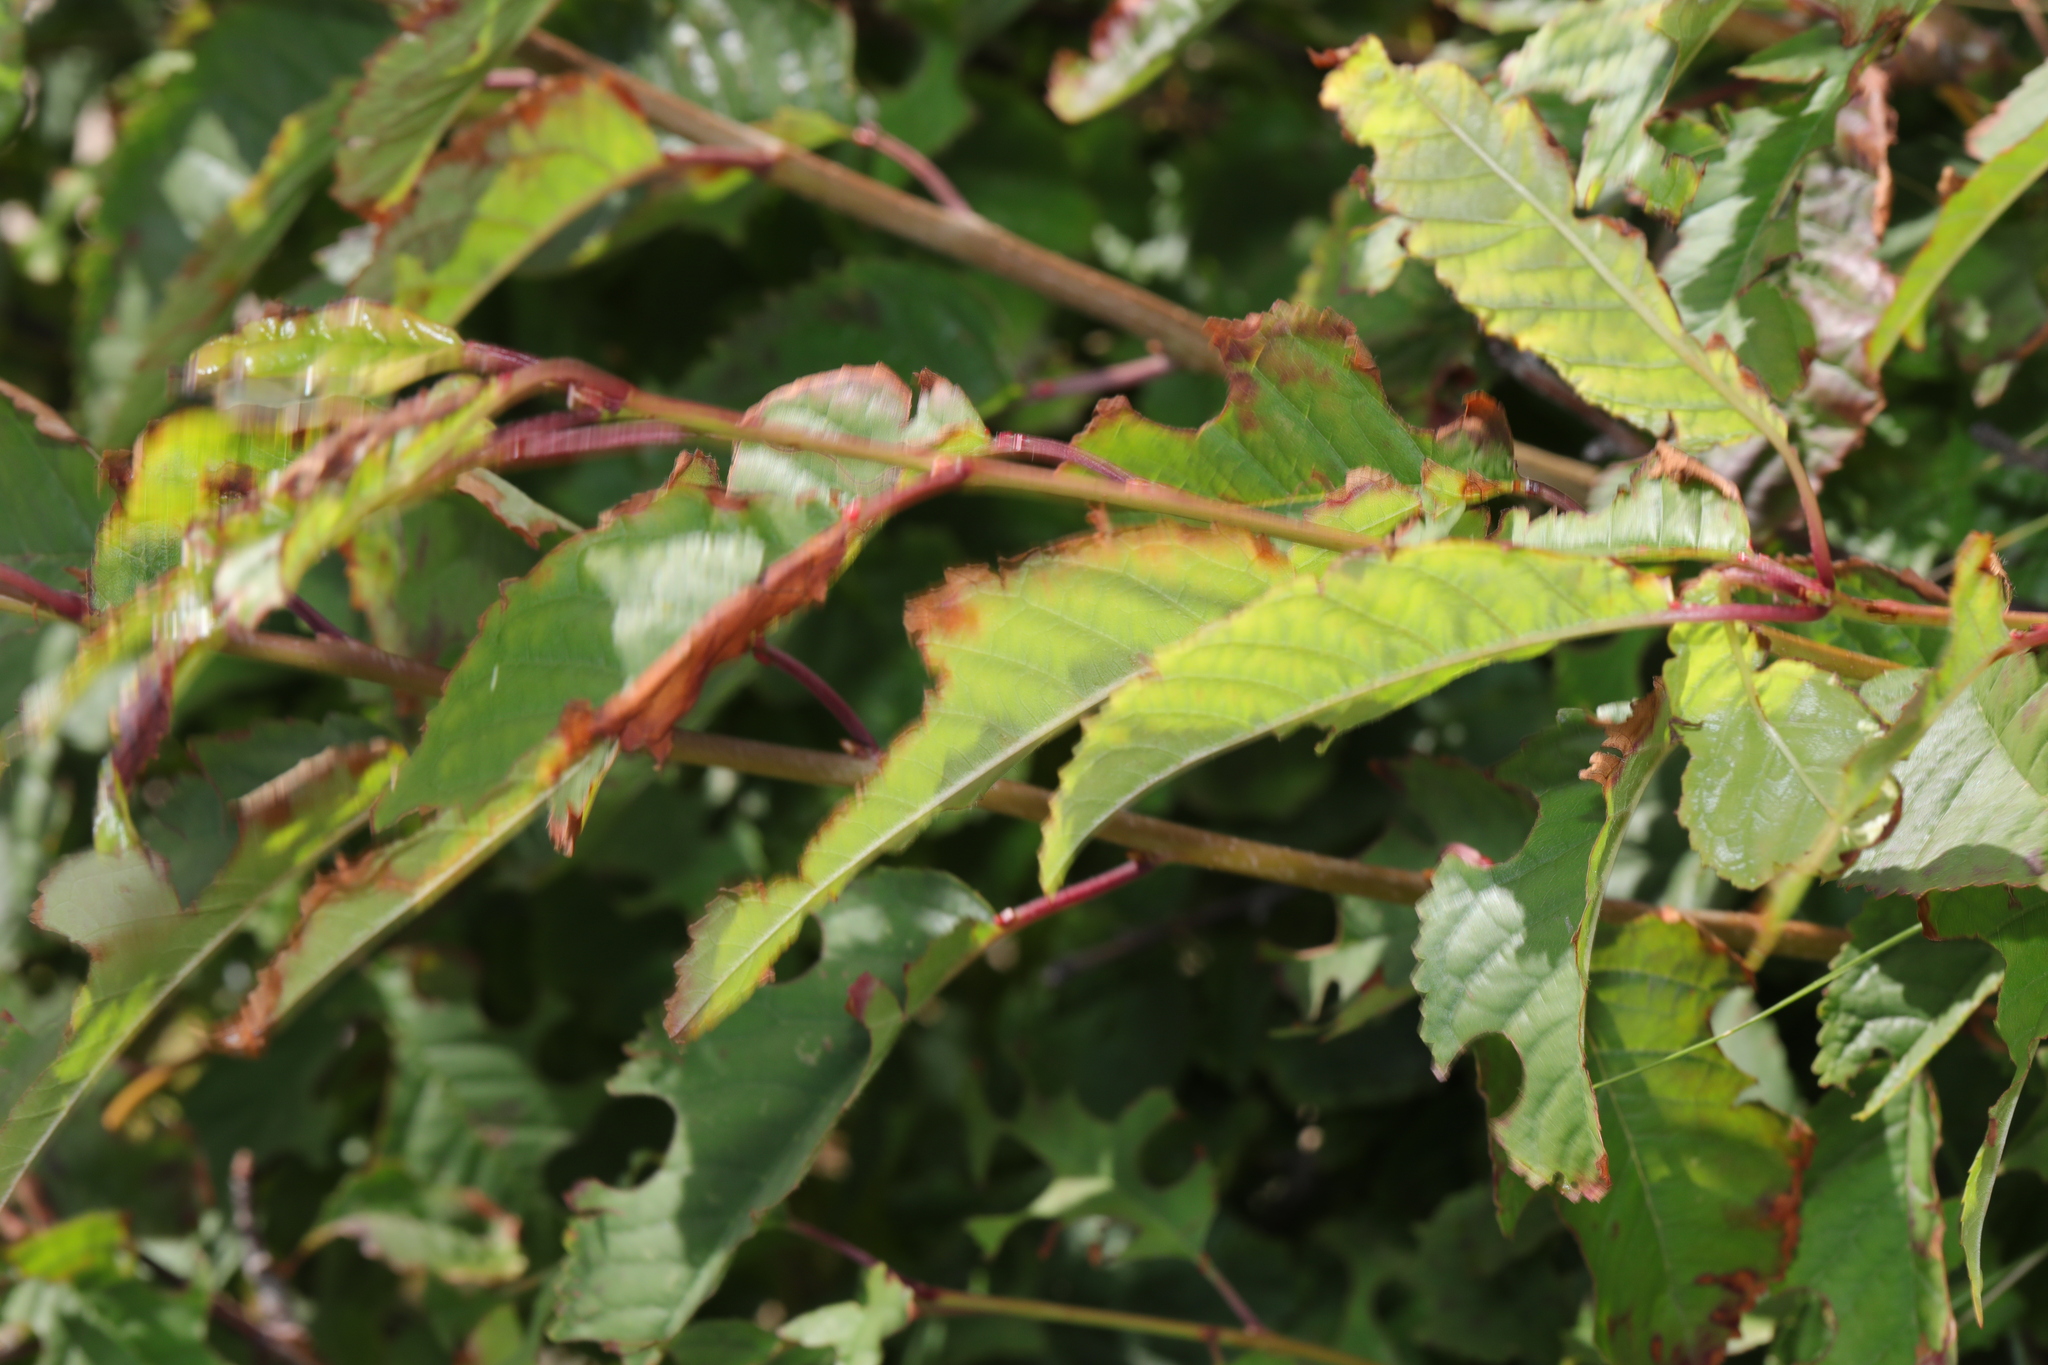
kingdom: Plantae
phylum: Tracheophyta
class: Magnoliopsida
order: Rosales
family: Rosaceae
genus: Prunus
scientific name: Prunus avium
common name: Sweet cherry
